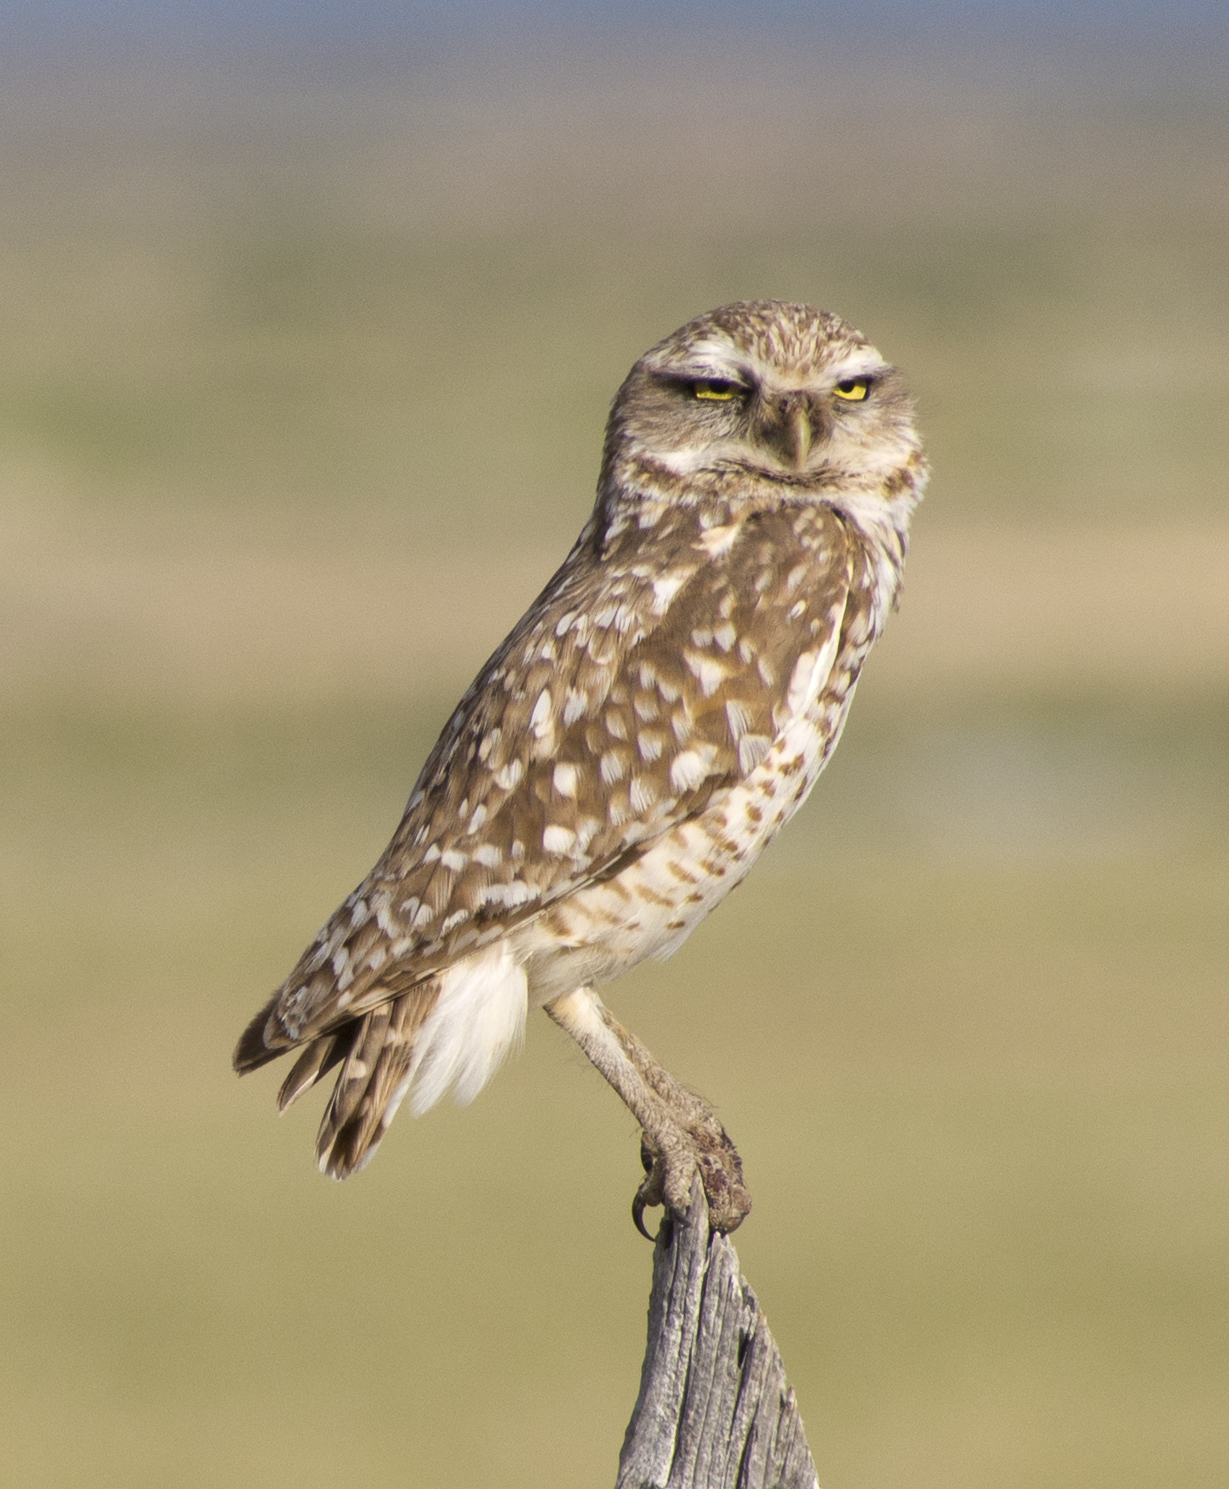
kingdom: Animalia
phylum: Chordata
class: Aves
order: Strigiformes
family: Strigidae
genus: Athene
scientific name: Athene cunicularia
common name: Burrowing owl
